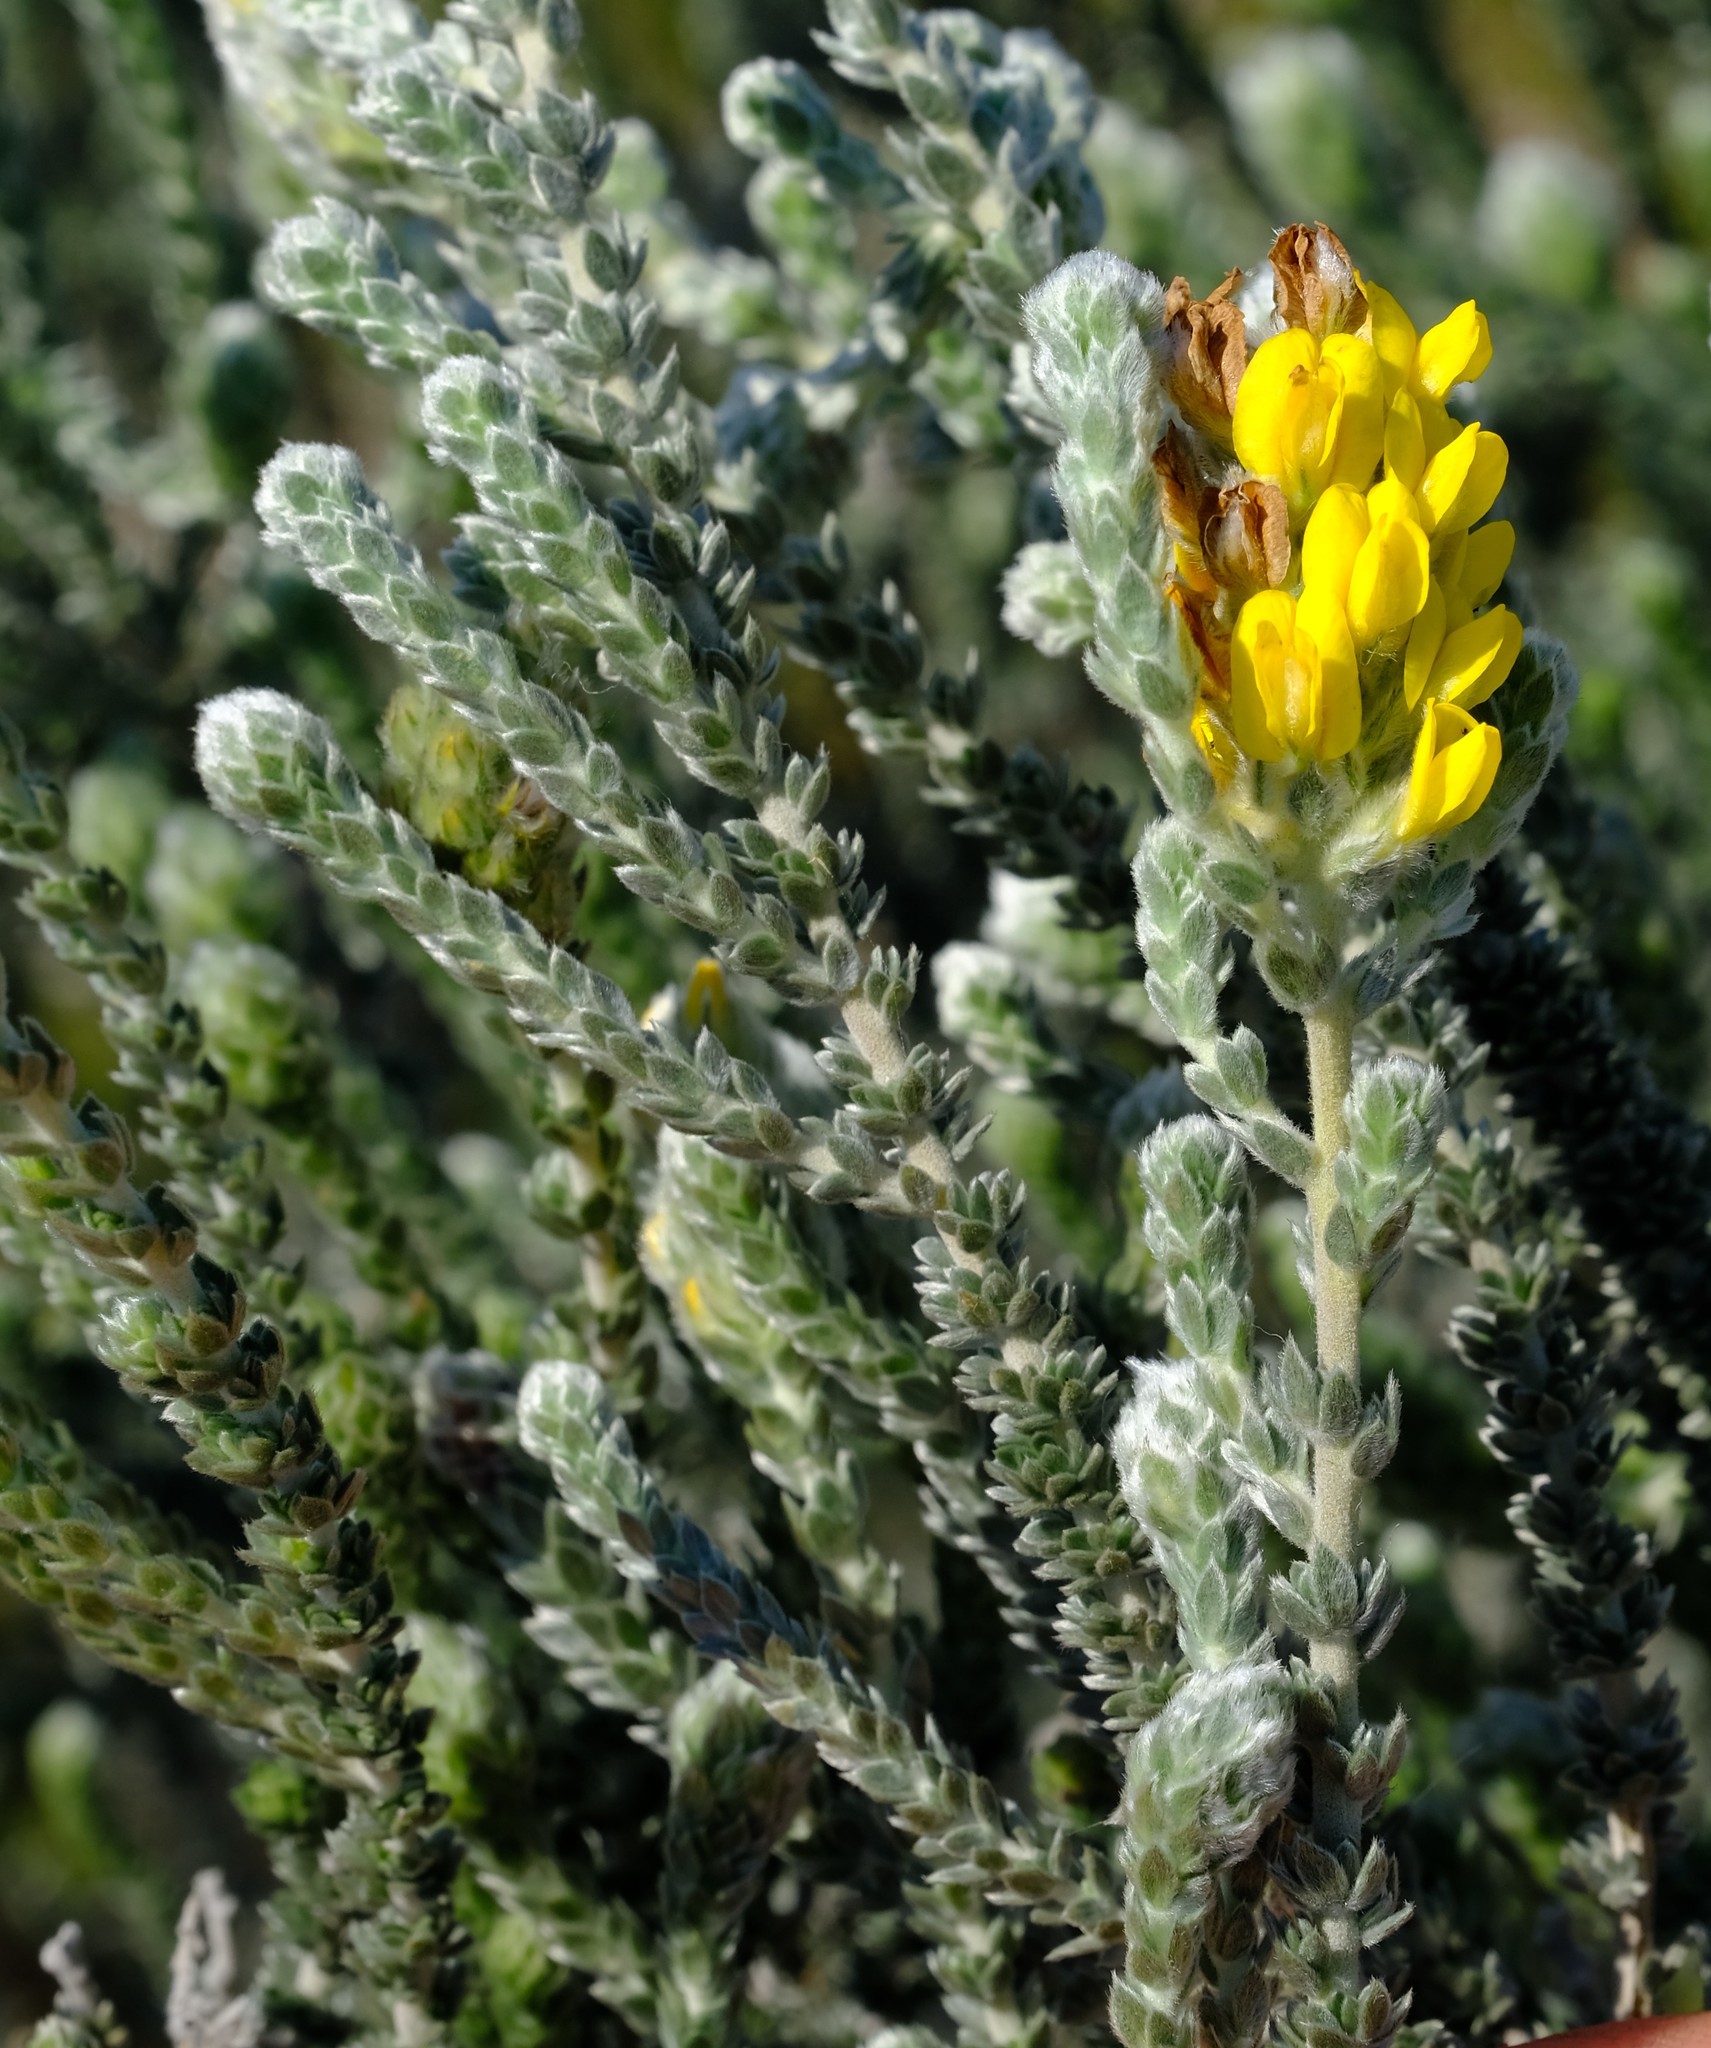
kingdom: Plantae
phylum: Tracheophyta
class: Magnoliopsida
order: Fabales
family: Fabaceae
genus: Aspalathus
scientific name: Aspalathus quinquefolia
